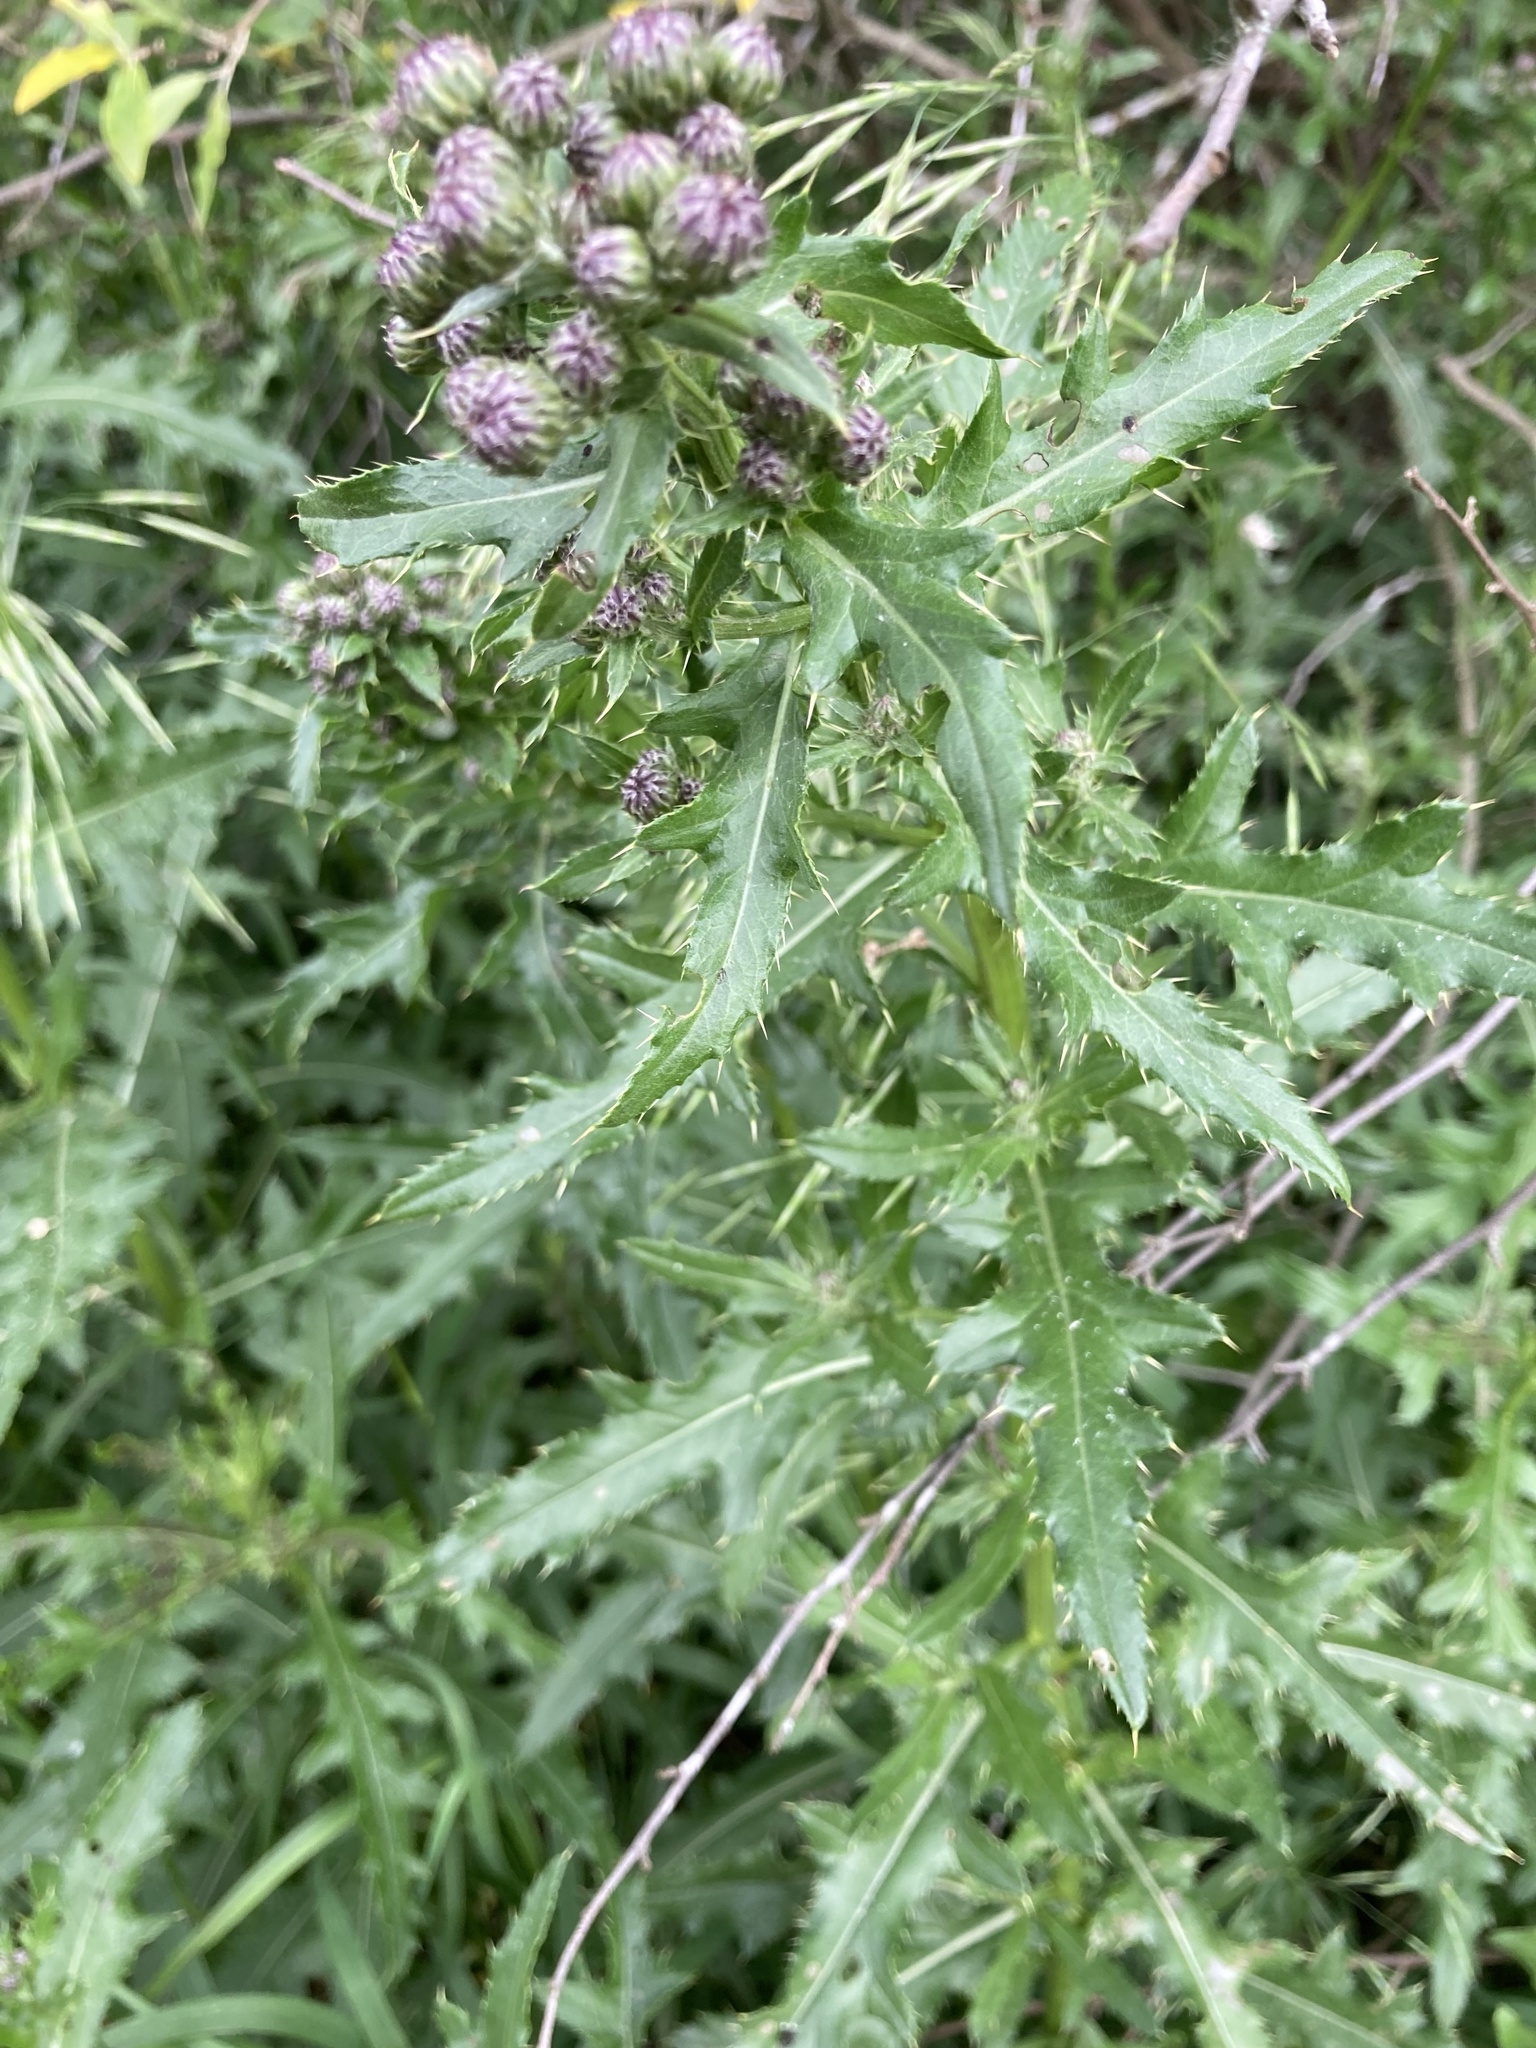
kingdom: Plantae
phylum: Tracheophyta
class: Magnoliopsida
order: Asterales
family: Asteraceae
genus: Cirsium
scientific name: Cirsium arvense
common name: Creeping thistle
